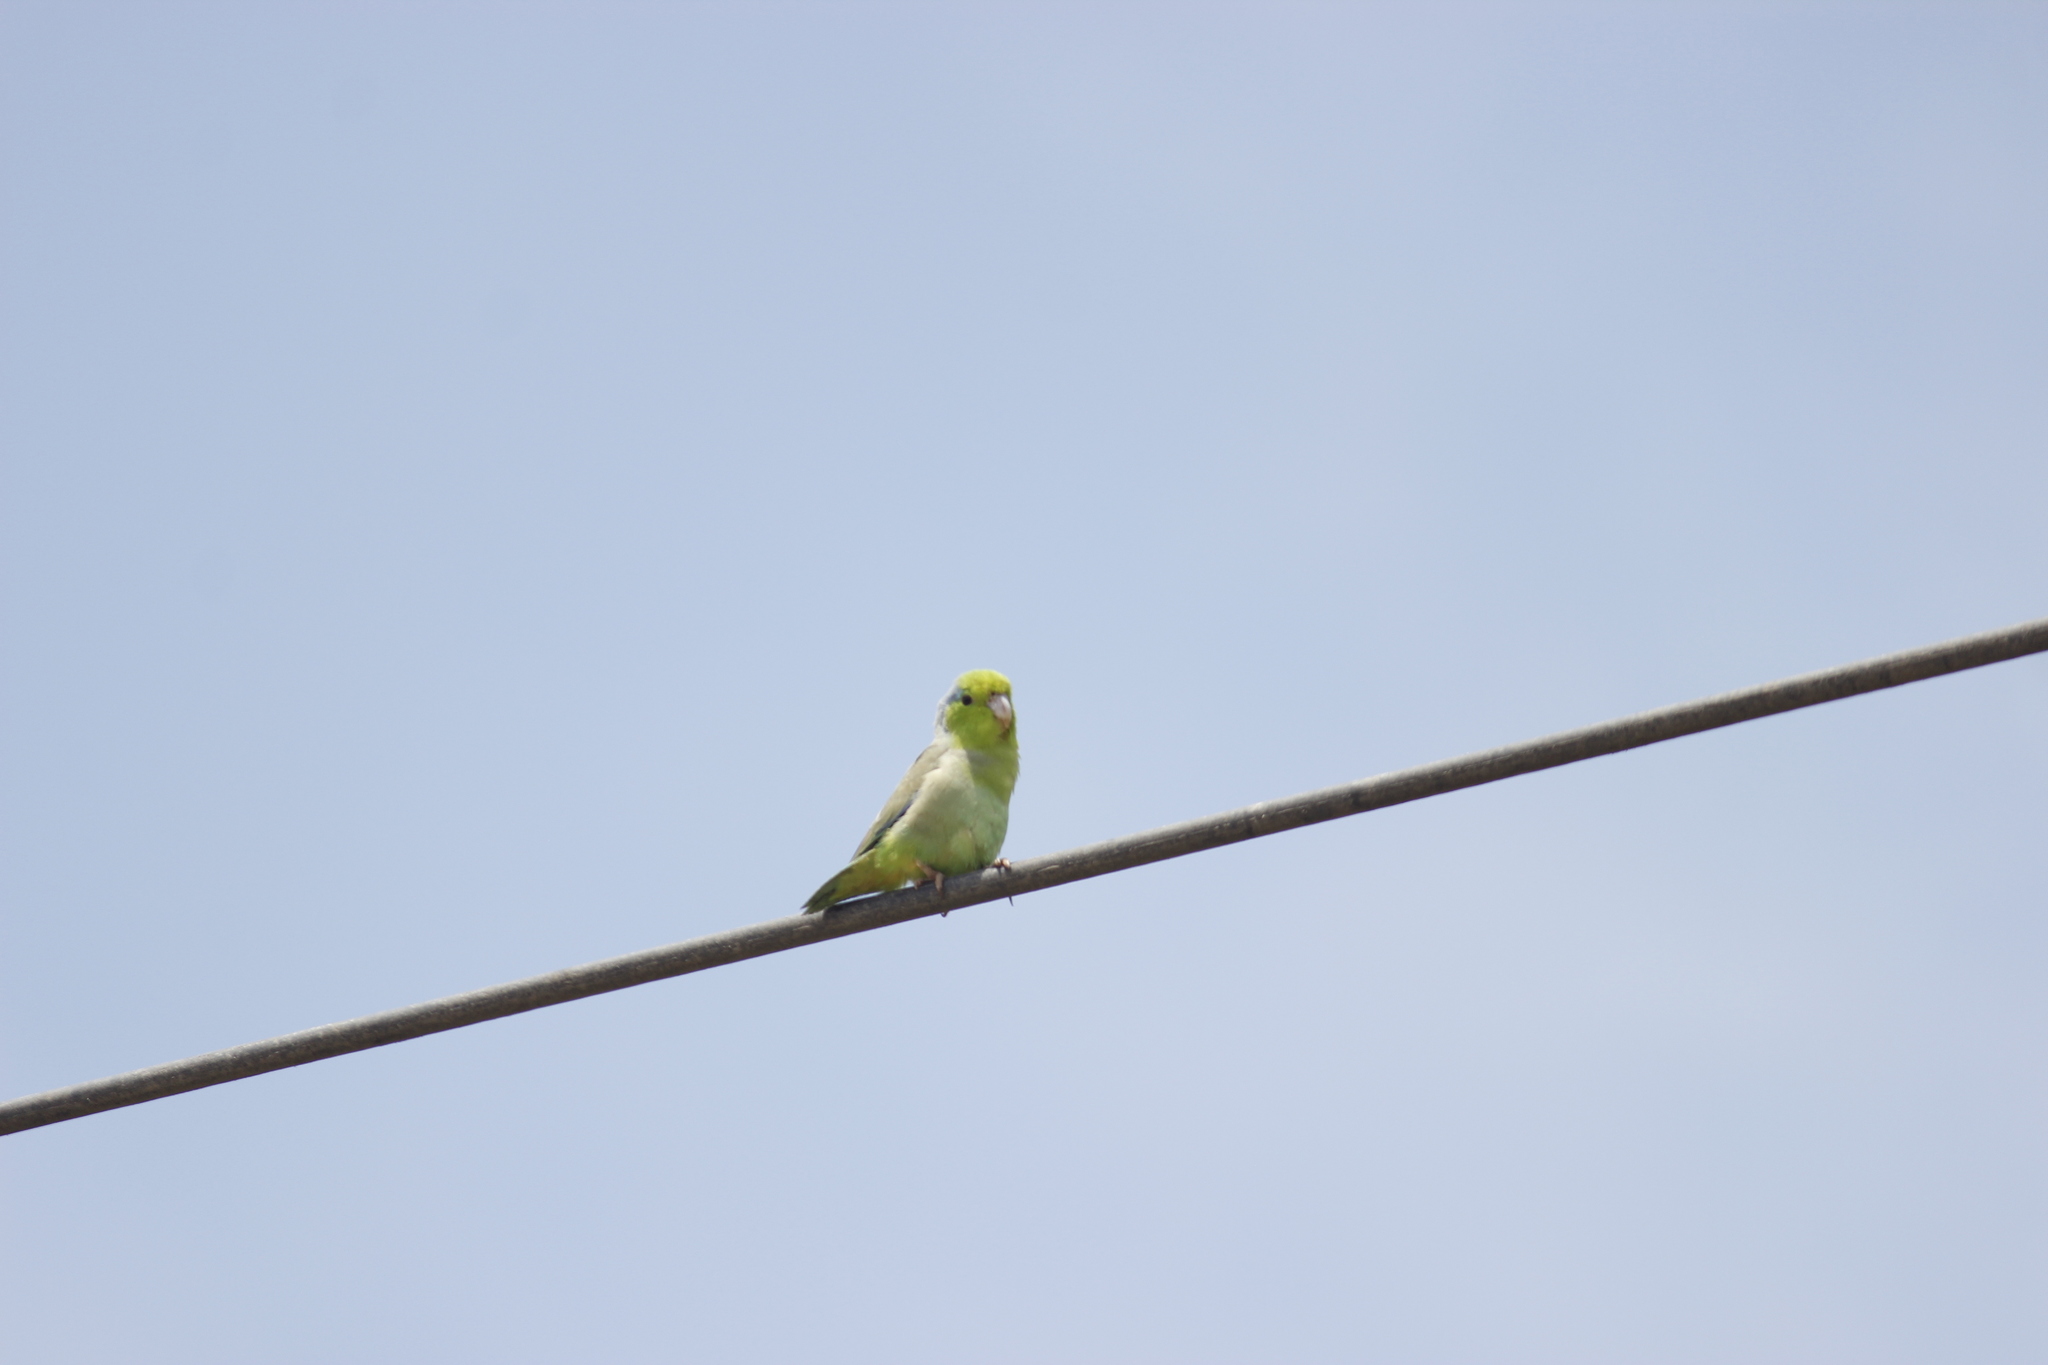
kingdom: Animalia
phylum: Chordata
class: Aves
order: Psittaciformes
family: Psittacidae
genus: Forpus
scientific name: Forpus coelestis
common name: Pacific parrotlet
